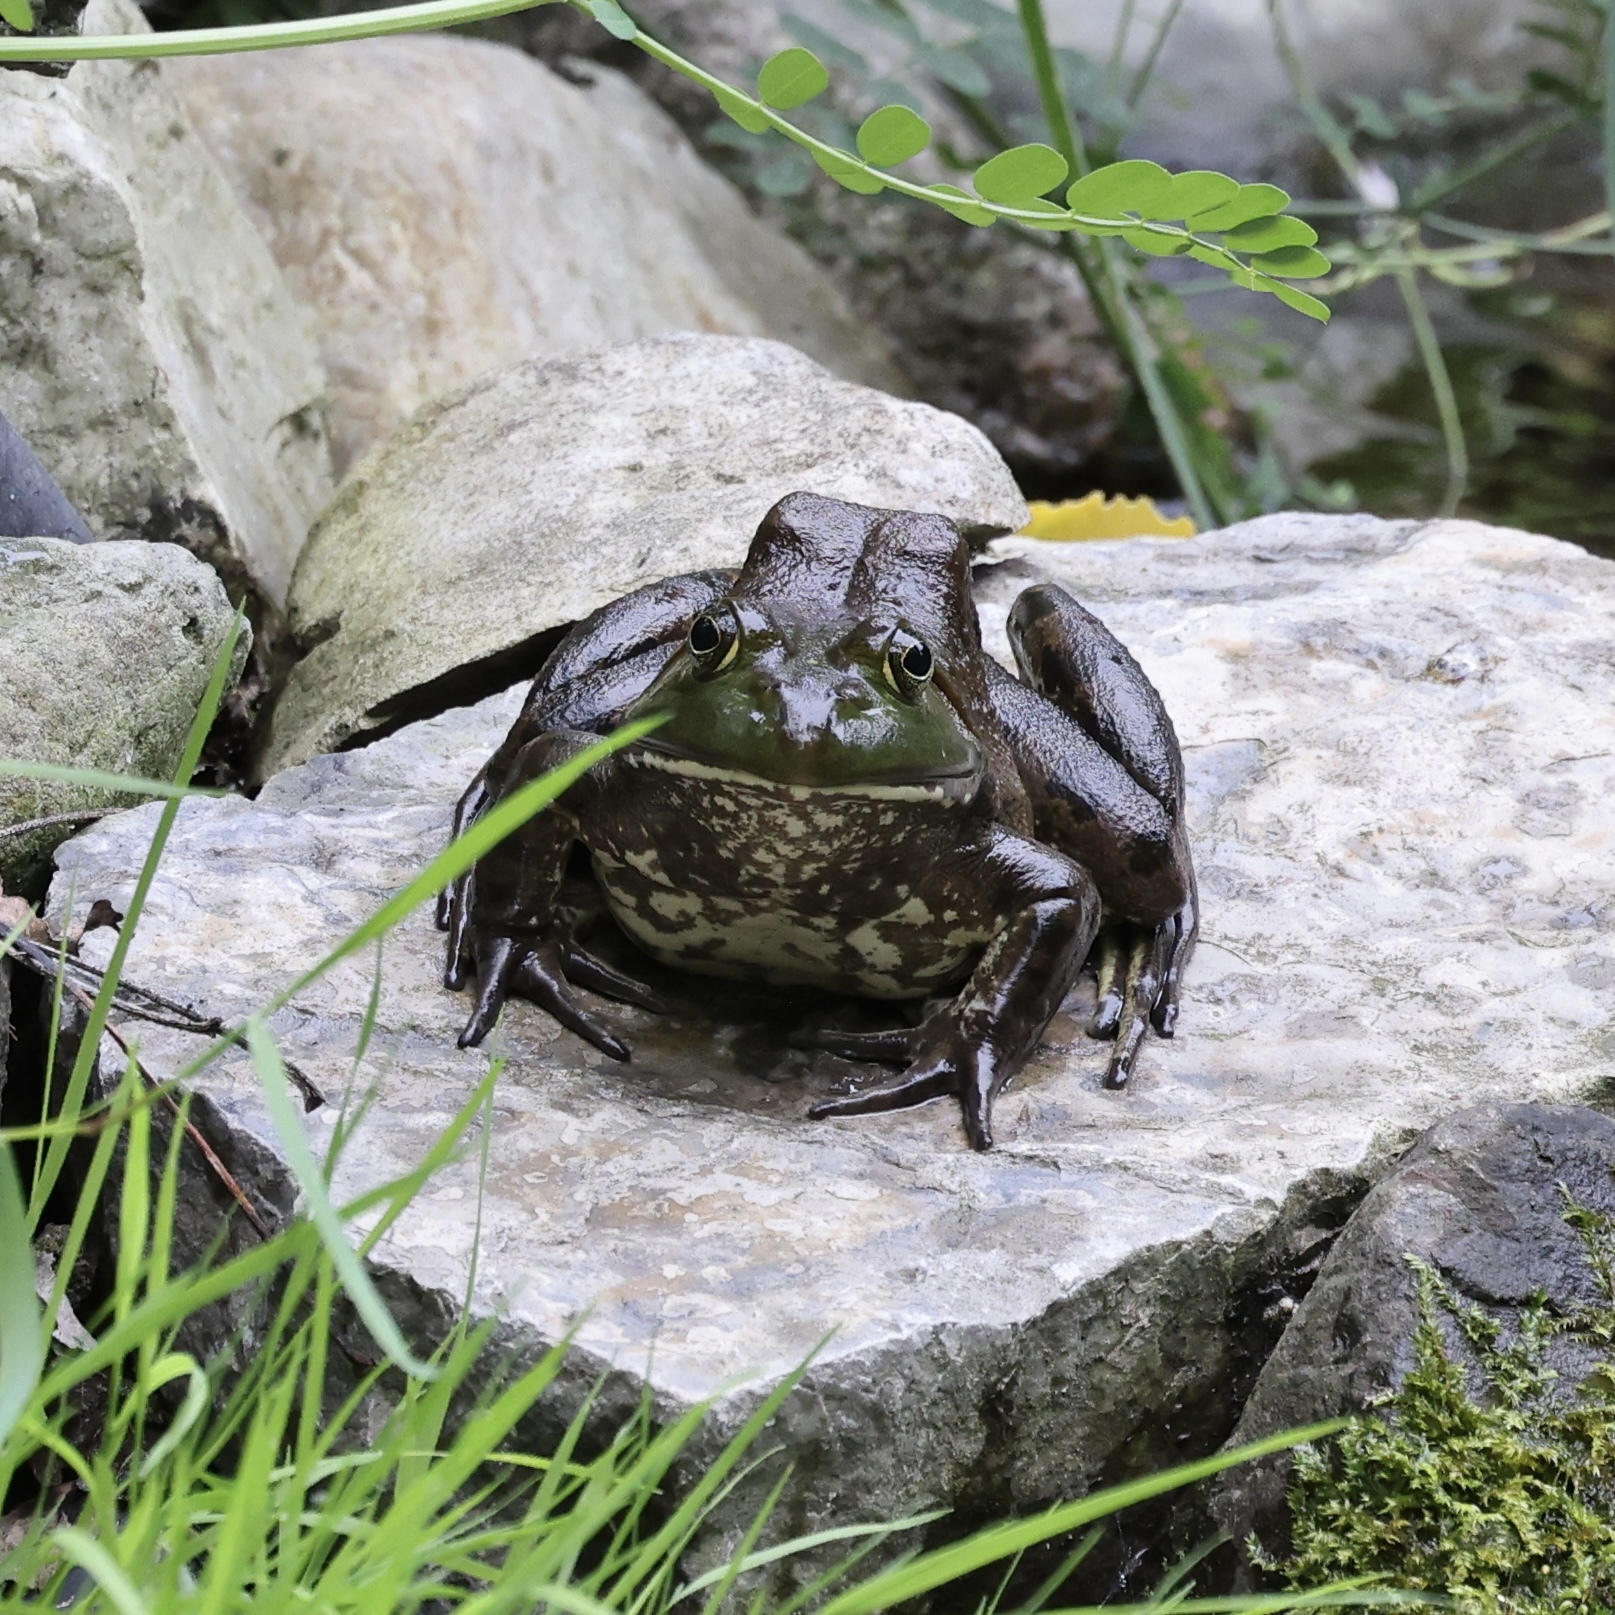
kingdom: Animalia
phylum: Chordata
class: Amphibia
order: Anura
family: Ranidae
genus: Lithobates
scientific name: Lithobates catesbeianus
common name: American bullfrog
